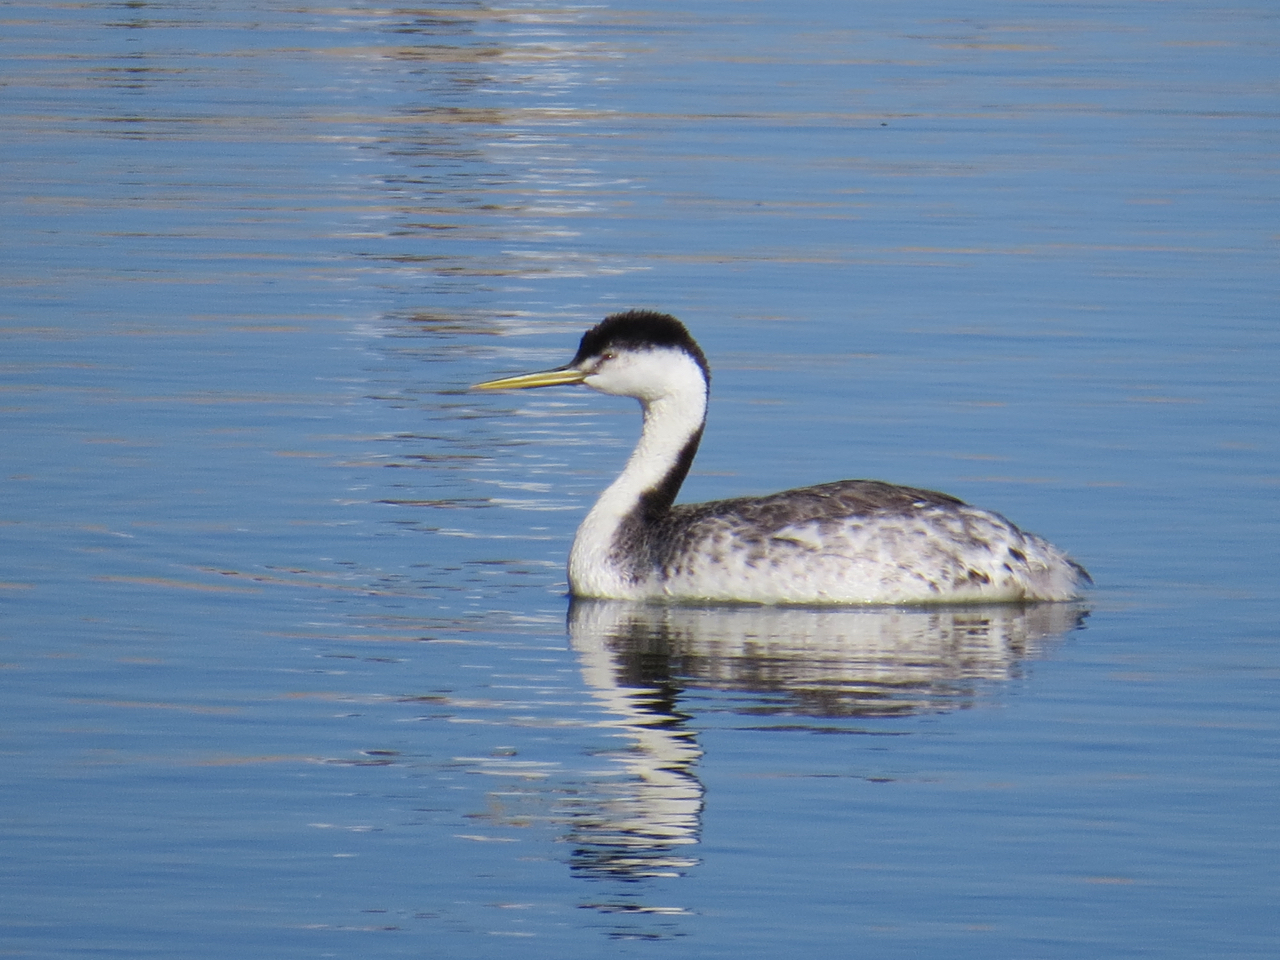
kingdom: Animalia
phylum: Chordata
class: Aves
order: Podicipediformes
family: Podicipedidae
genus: Aechmophorus
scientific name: Aechmophorus clarkii
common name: Clark's grebe
